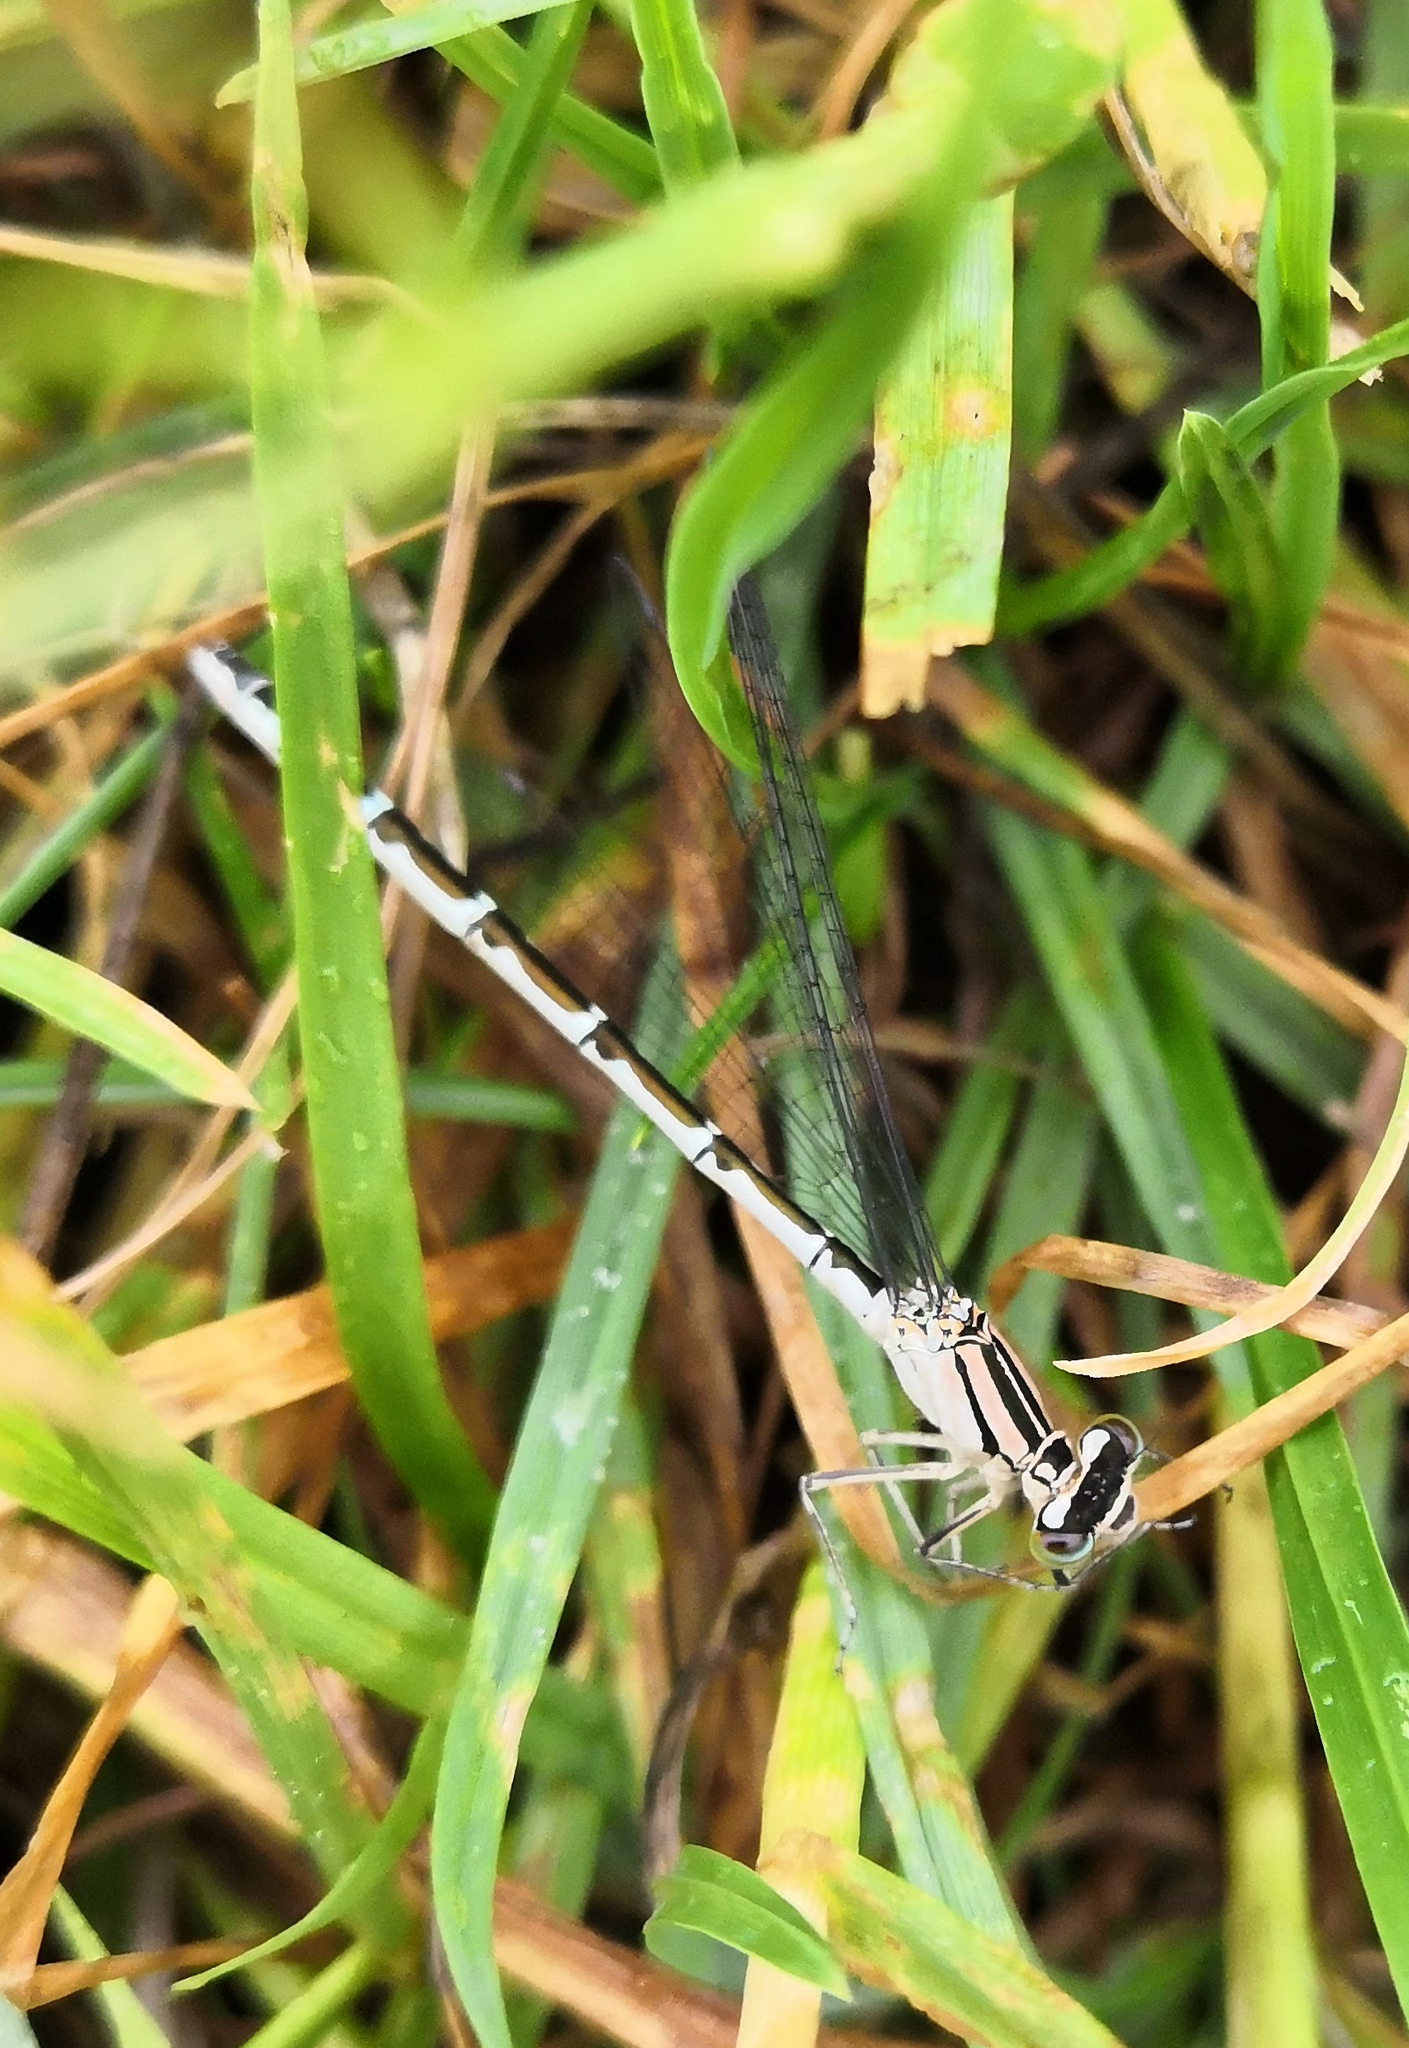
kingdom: Animalia
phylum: Arthropoda
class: Insecta
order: Odonata
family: Coenagrionidae
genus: Enallagma
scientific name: Enallagma cyathigerum
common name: Common blue damselfly
